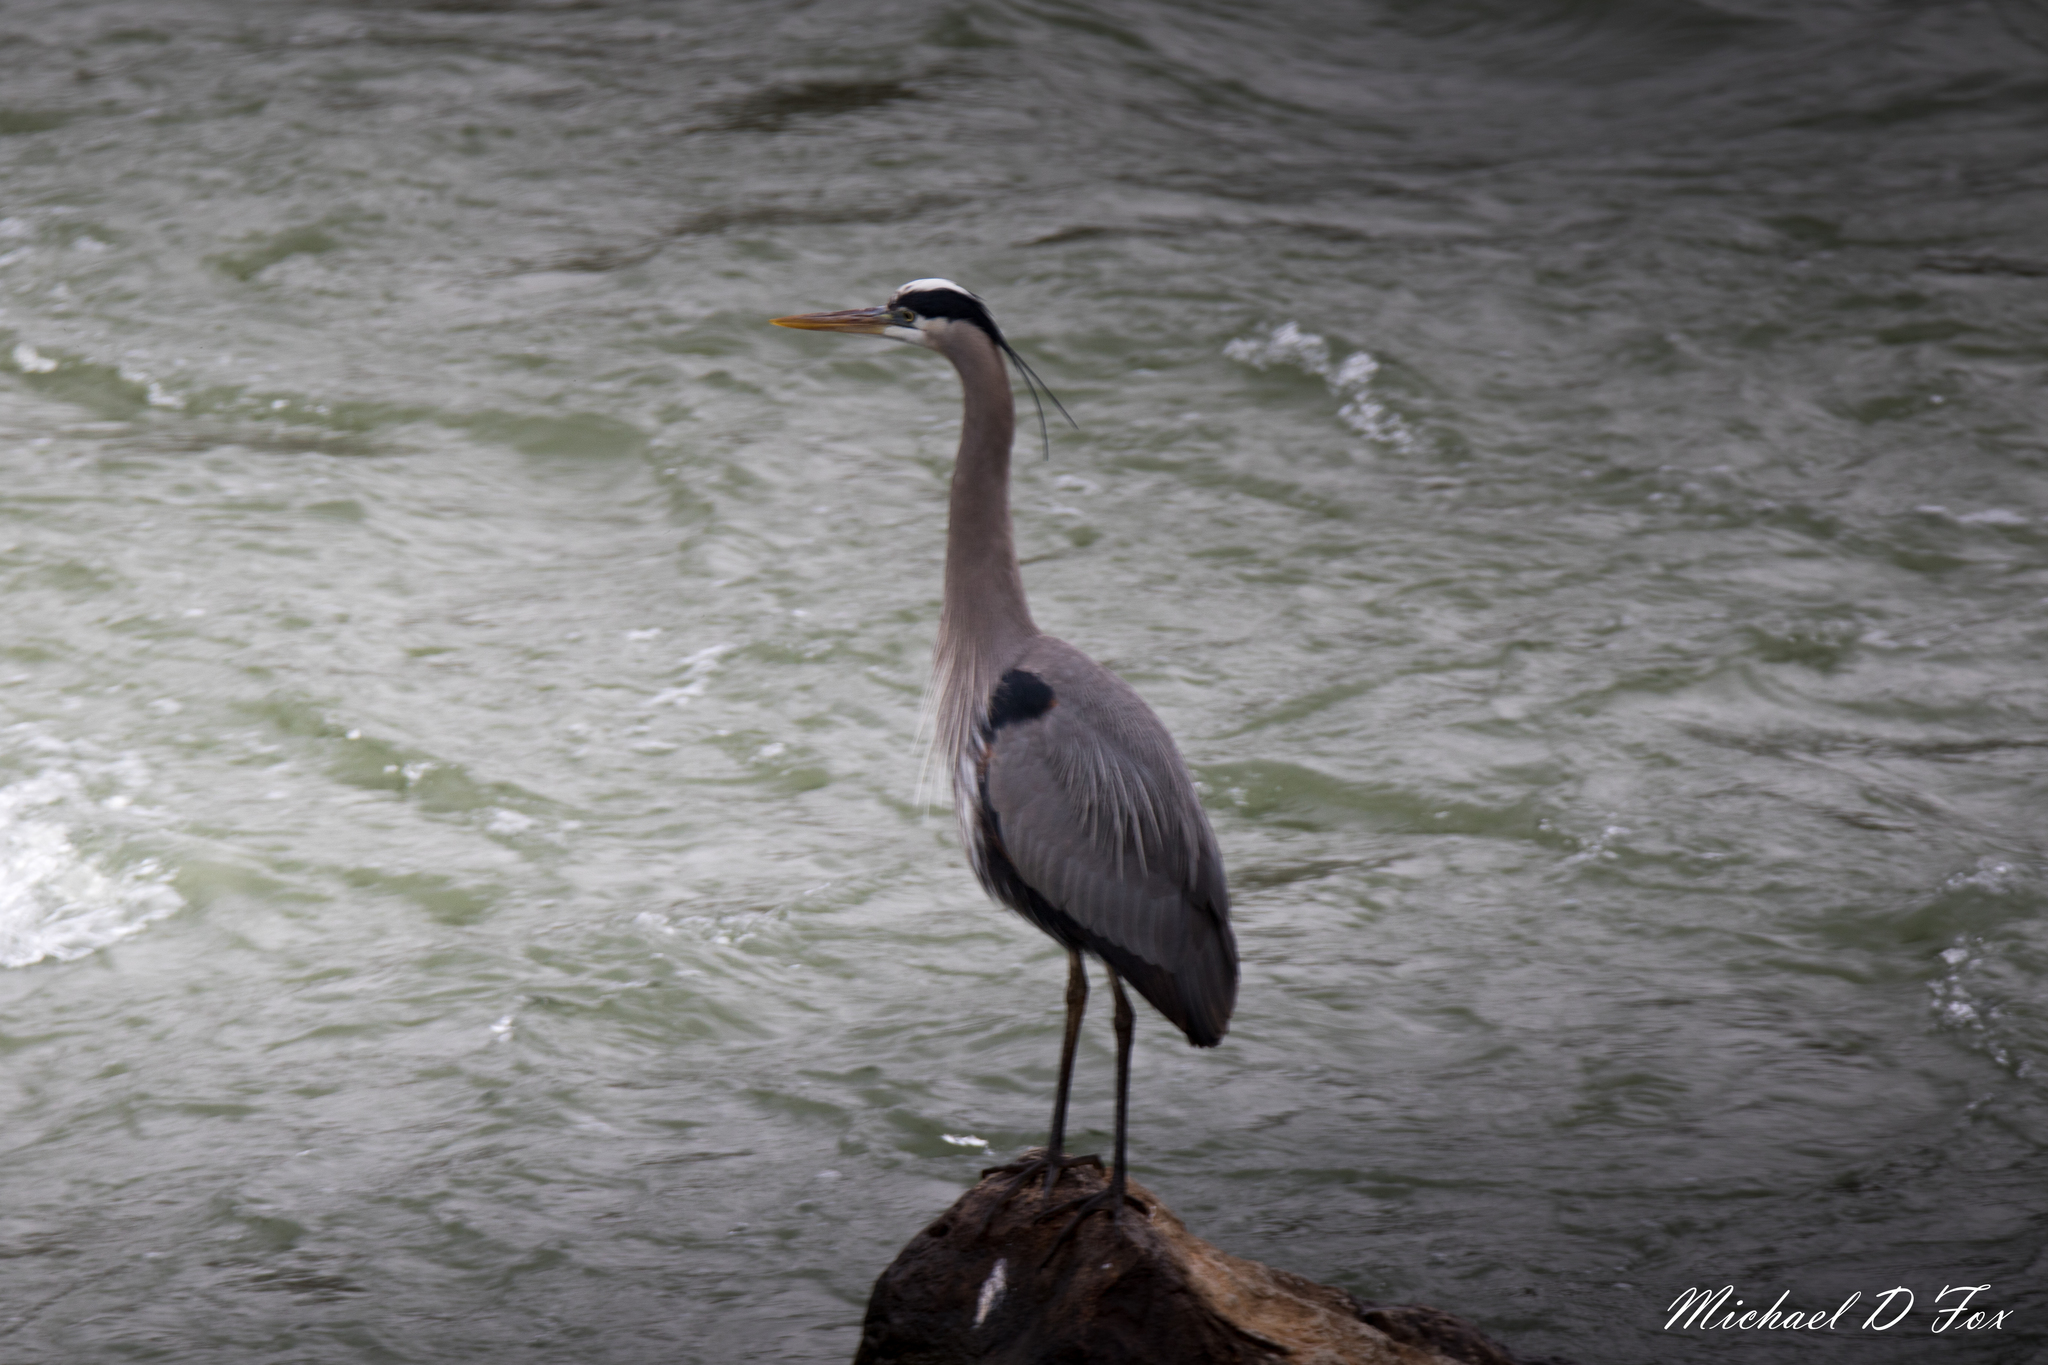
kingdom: Animalia
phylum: Chordata
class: Aves
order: Pelecaniformes
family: Ardeidae
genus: Ardea
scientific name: Ardea herodias
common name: Great blue heron
